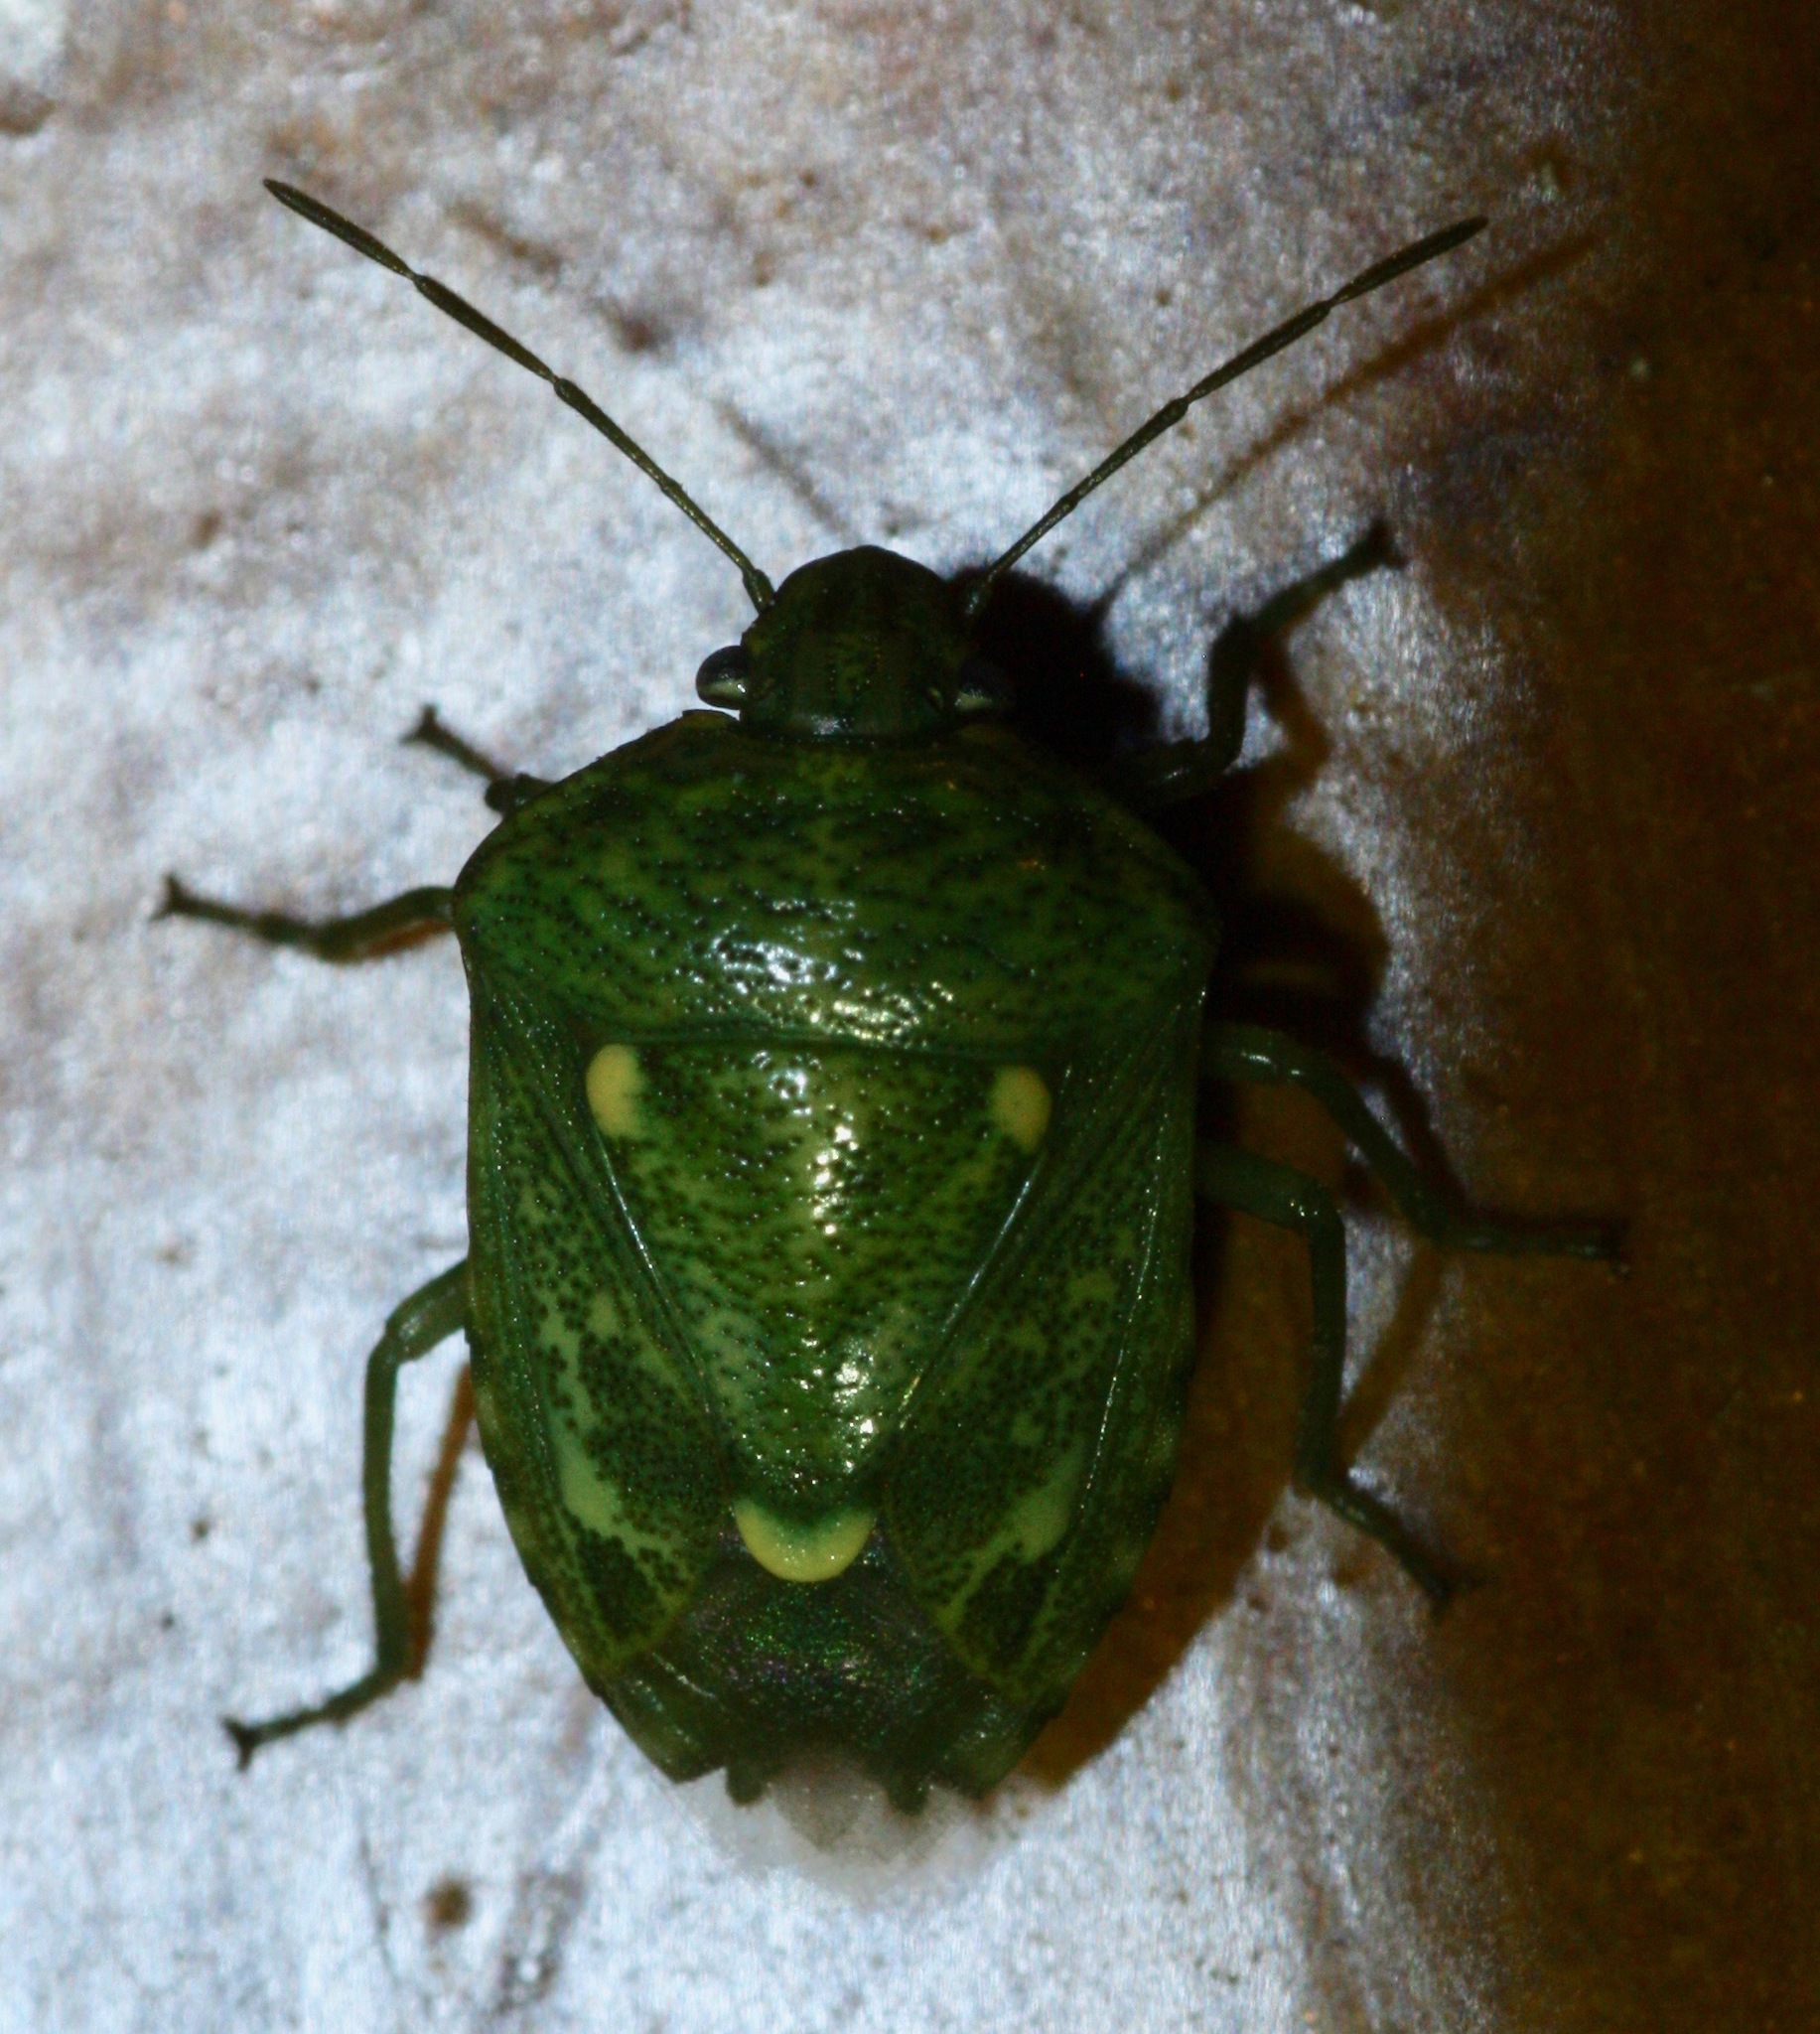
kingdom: Animalia
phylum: Arthropoda
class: Insecta
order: Hemiptera
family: Pentatomidae
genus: Banasa
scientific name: Banasa euchlora
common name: Cedar berry bug
